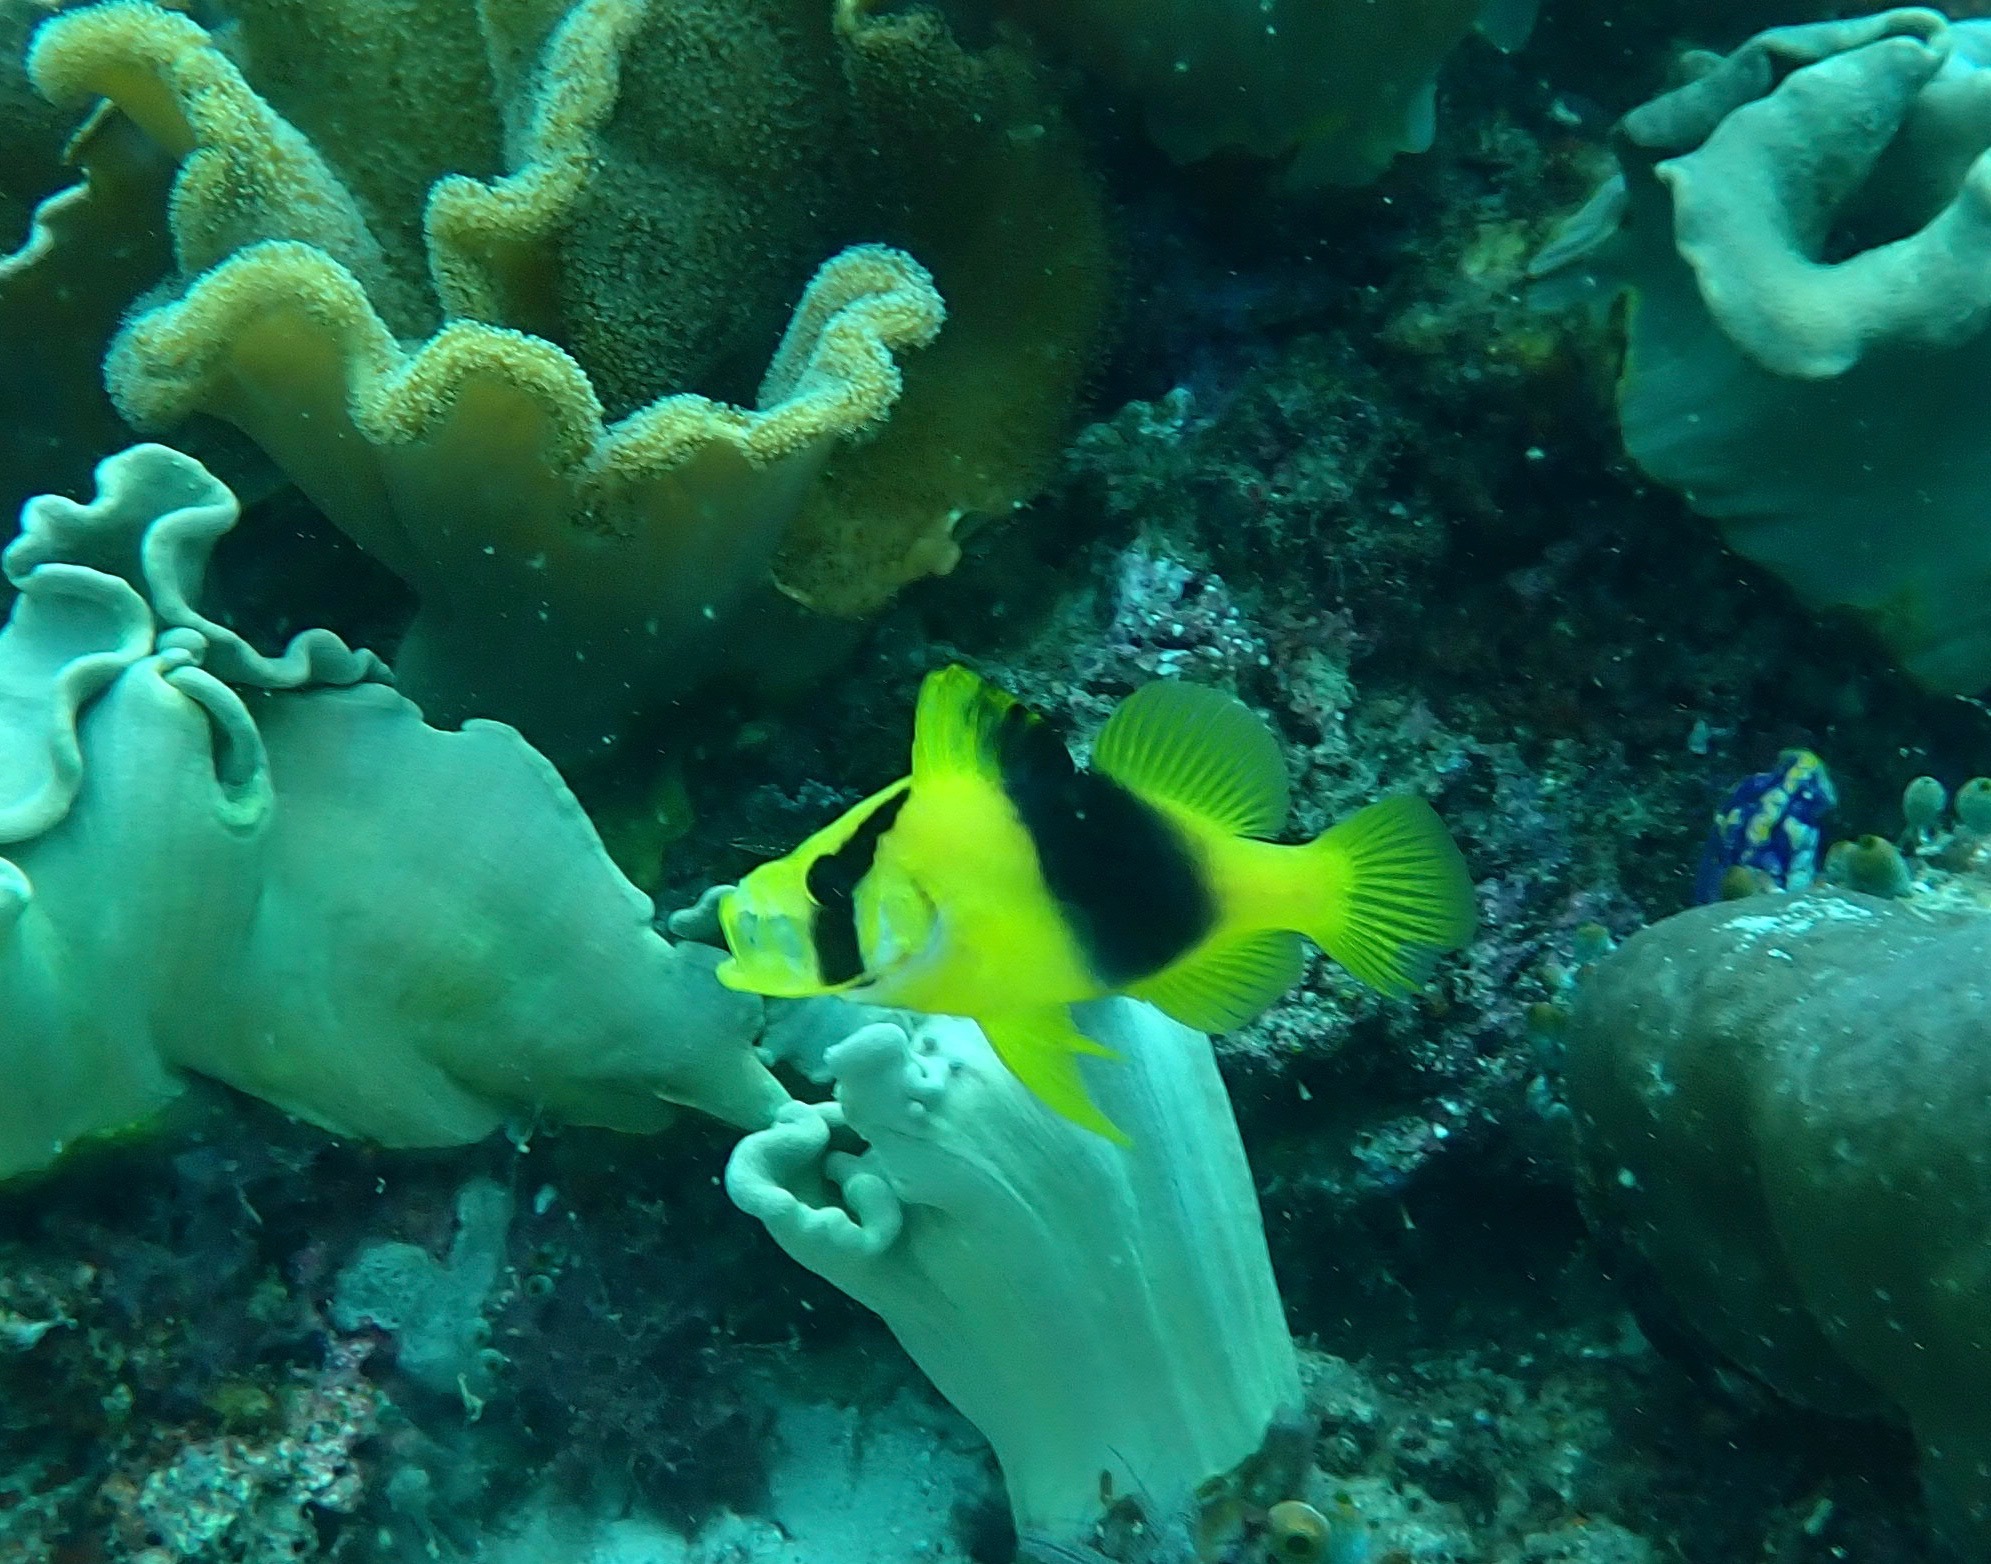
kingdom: Animalia
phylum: Chordata
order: Perciformes
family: Serranidae
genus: Diploprion
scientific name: Diploprion bifasciatum
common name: Barred soapfish
